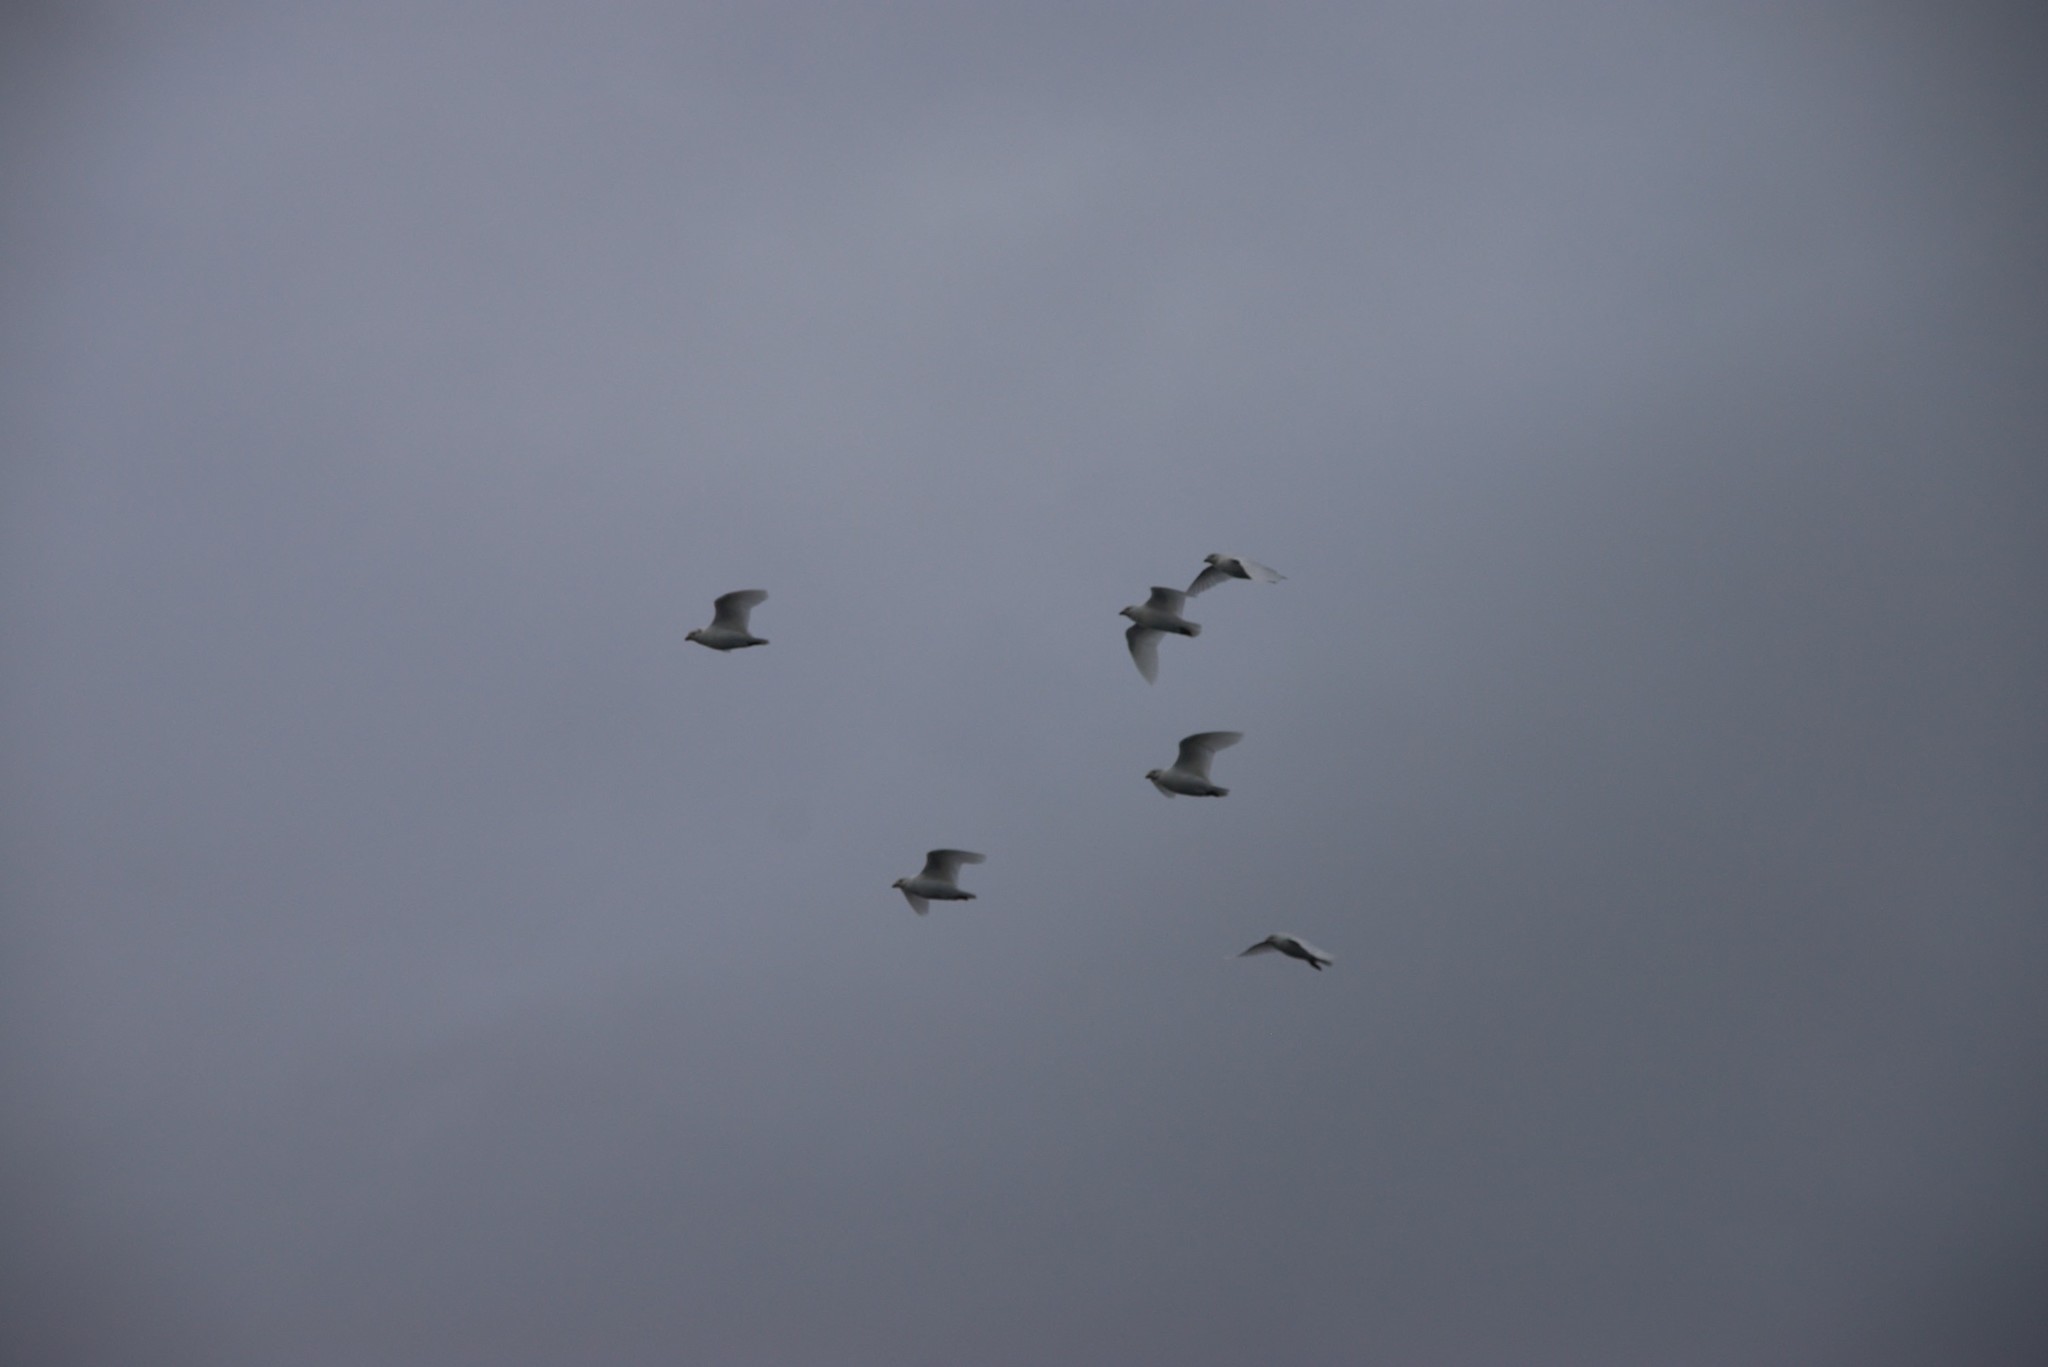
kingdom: Animalia
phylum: Chordata
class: Aves
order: Charadriiformes
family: Chionidae
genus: Chionis
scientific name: Chionis albus
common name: Snowy sheathbill
